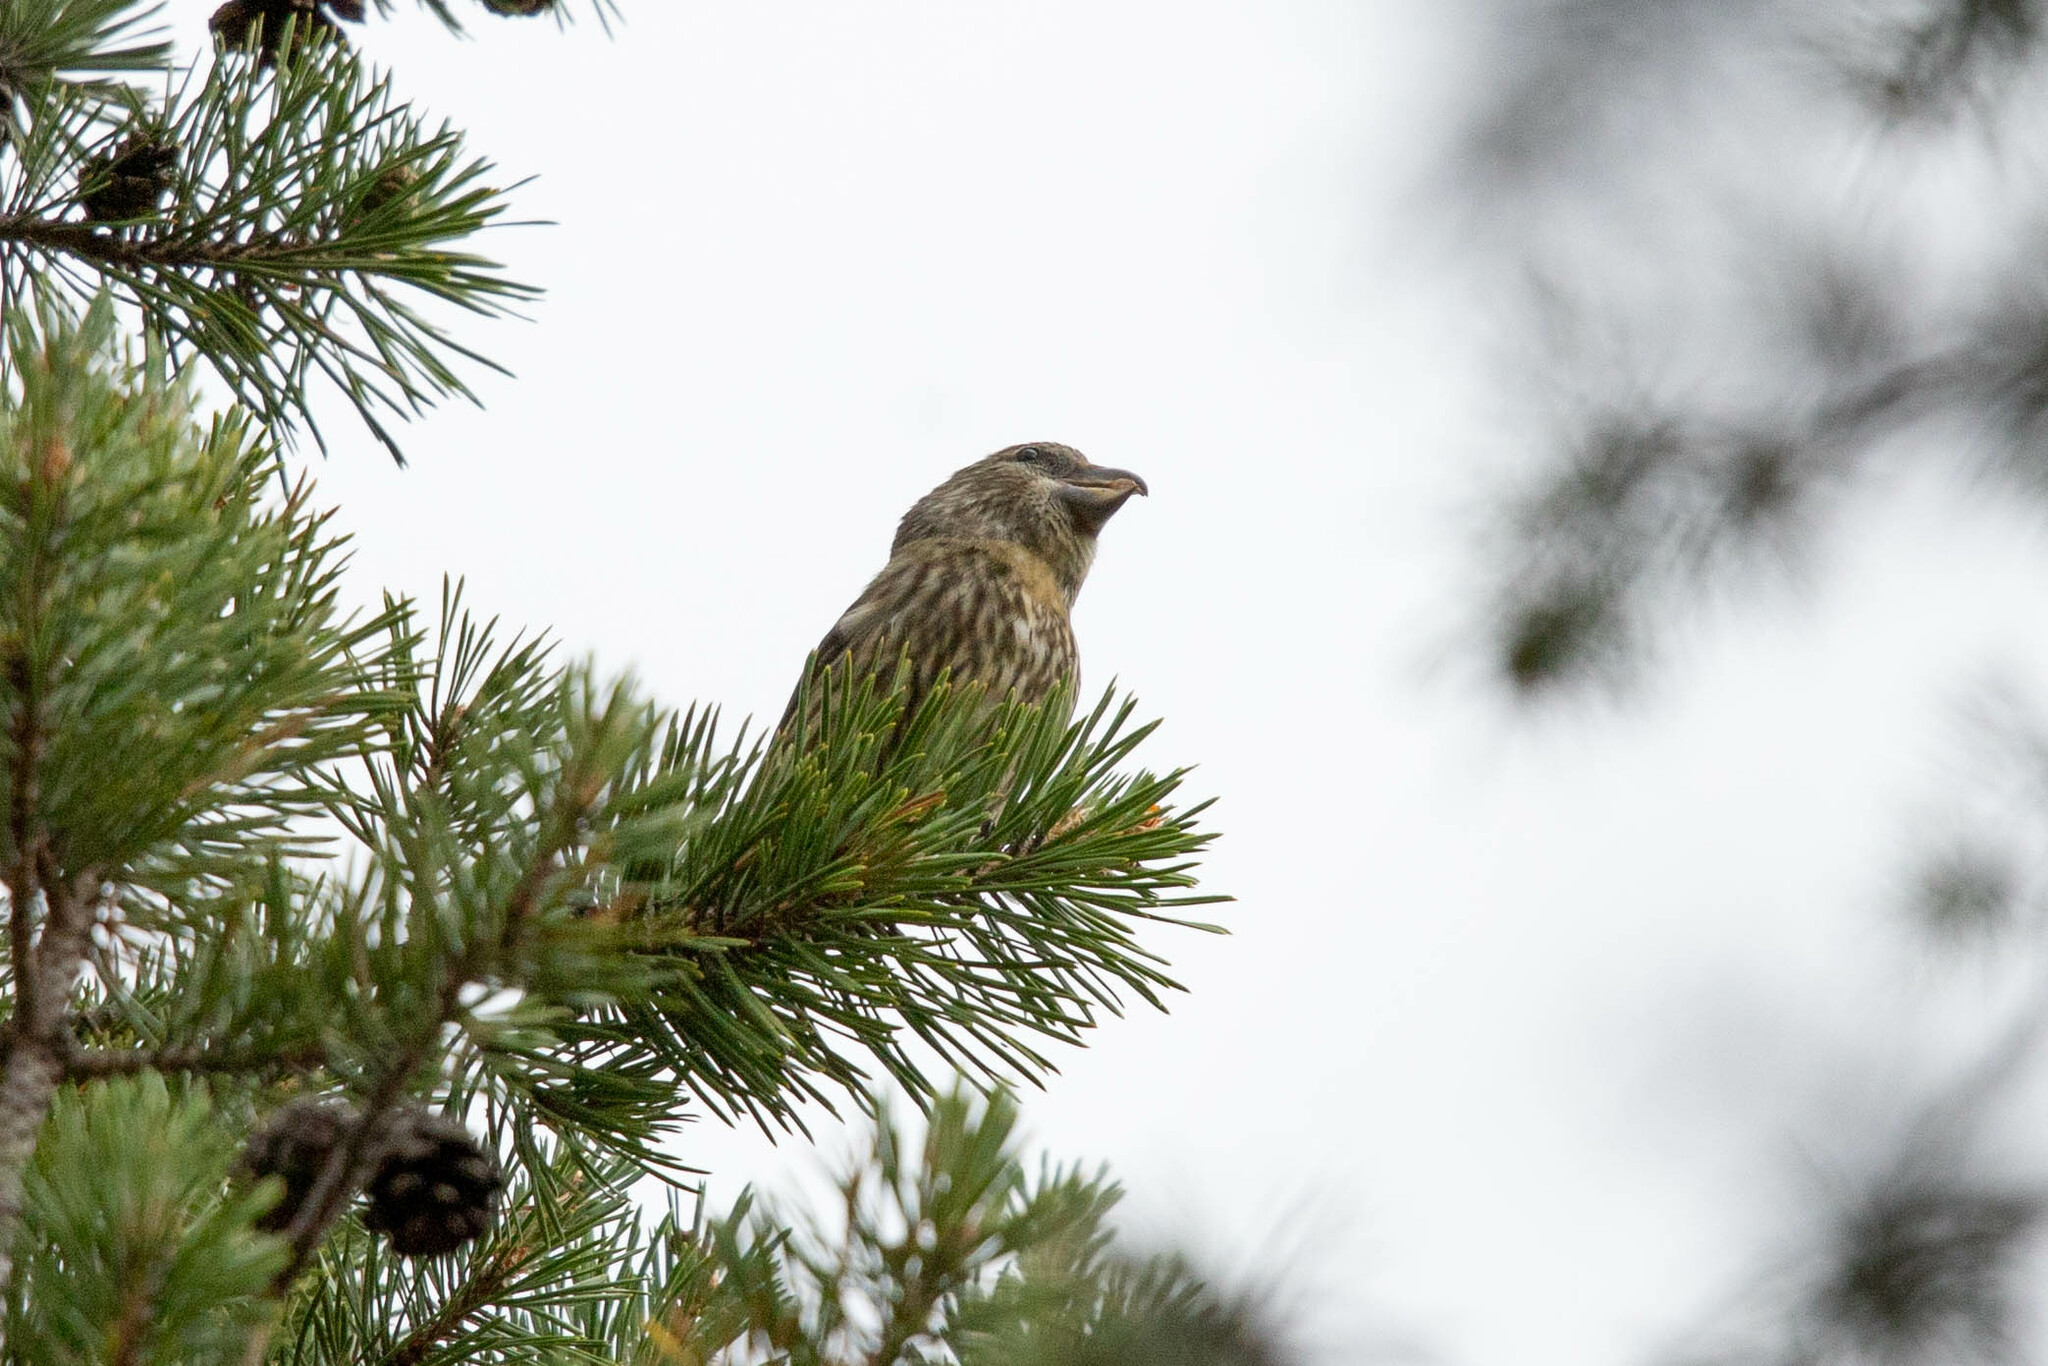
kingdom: Animalia
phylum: Chordata
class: Aves
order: Passeriformes
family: Fringillidae
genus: Loxia
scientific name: Loxia curvirostra
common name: Red crossbill
